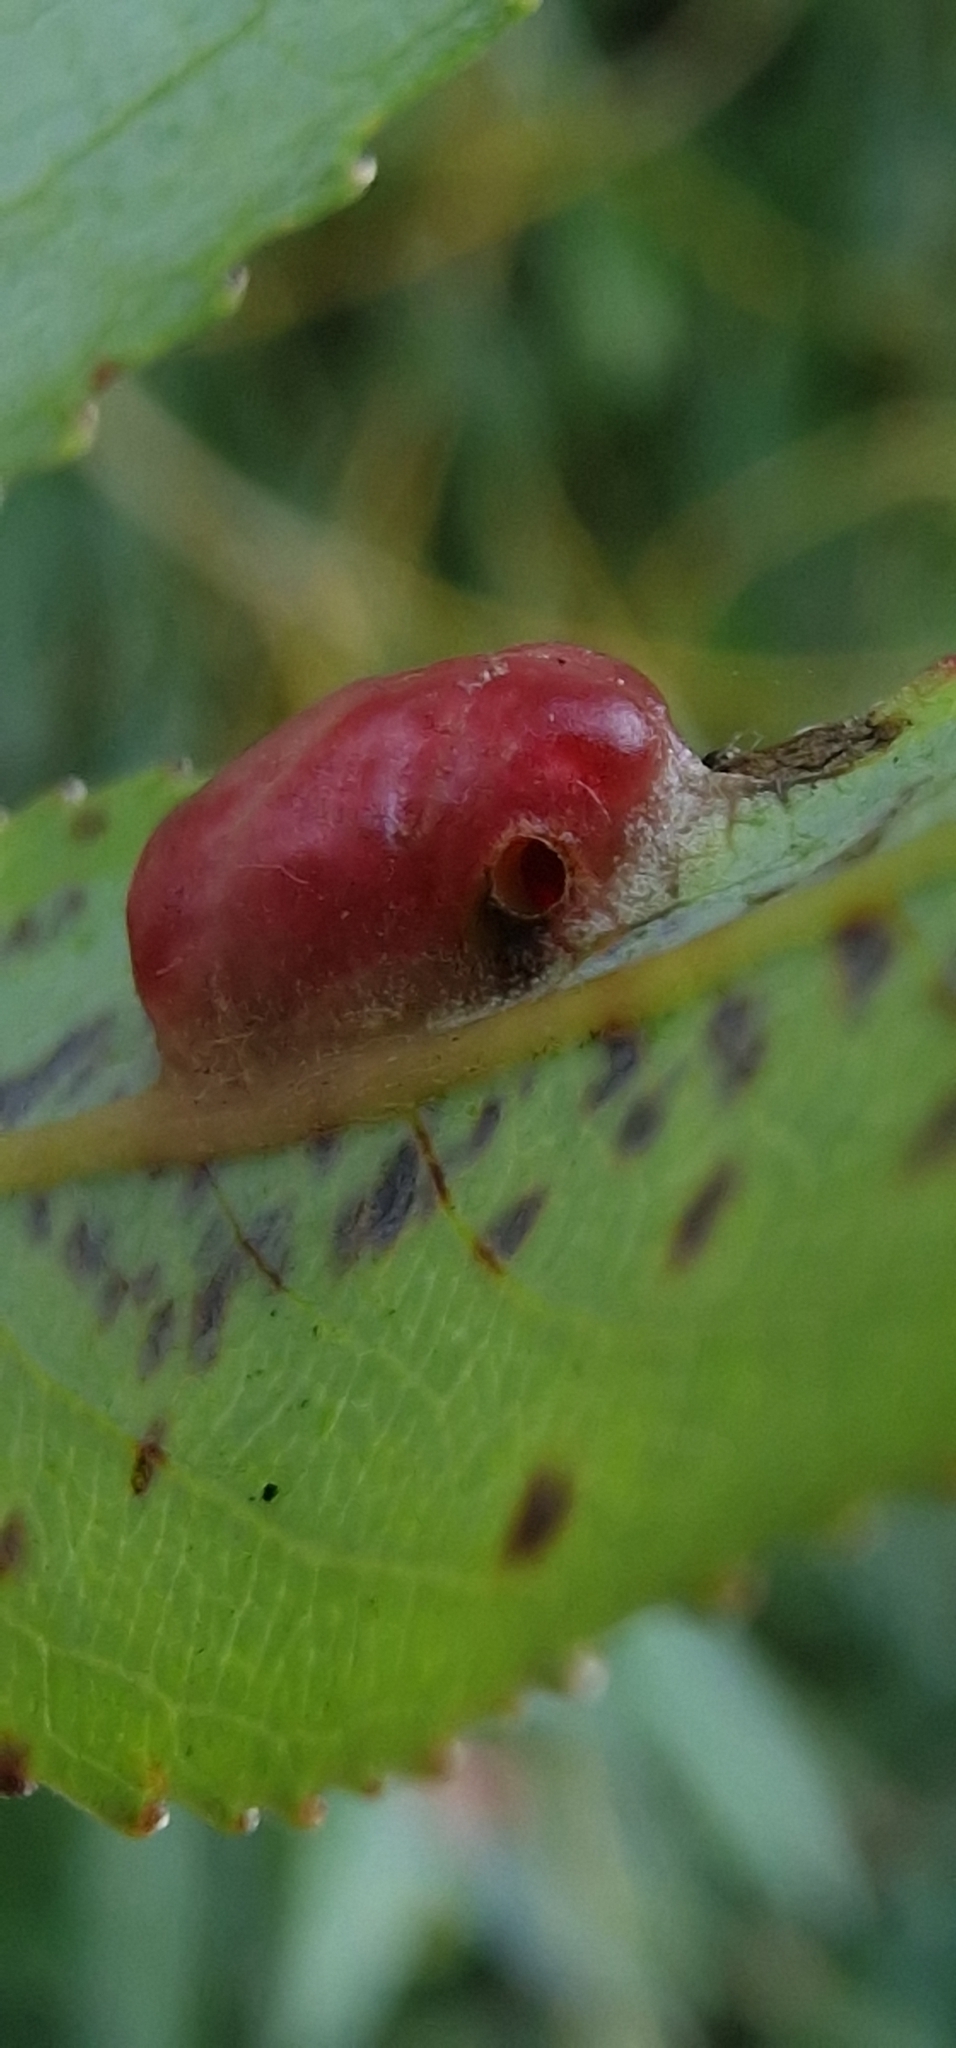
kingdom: Animalia
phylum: Arthropoda
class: Insecta
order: Hymenoptera
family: Tenthredinidae
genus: Pontania
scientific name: Pontania proxima
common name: Common sawfly
